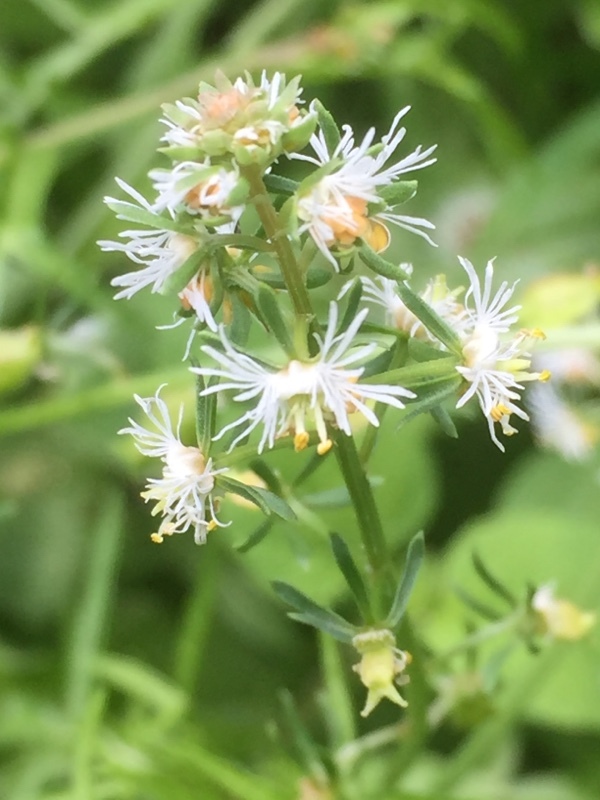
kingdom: Plantae
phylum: Tracheophyta
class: Magnoliopsida
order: Brassicales
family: Resedaceae
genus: Reseda
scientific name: Reseda phyteuma
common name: Corn mignonette
